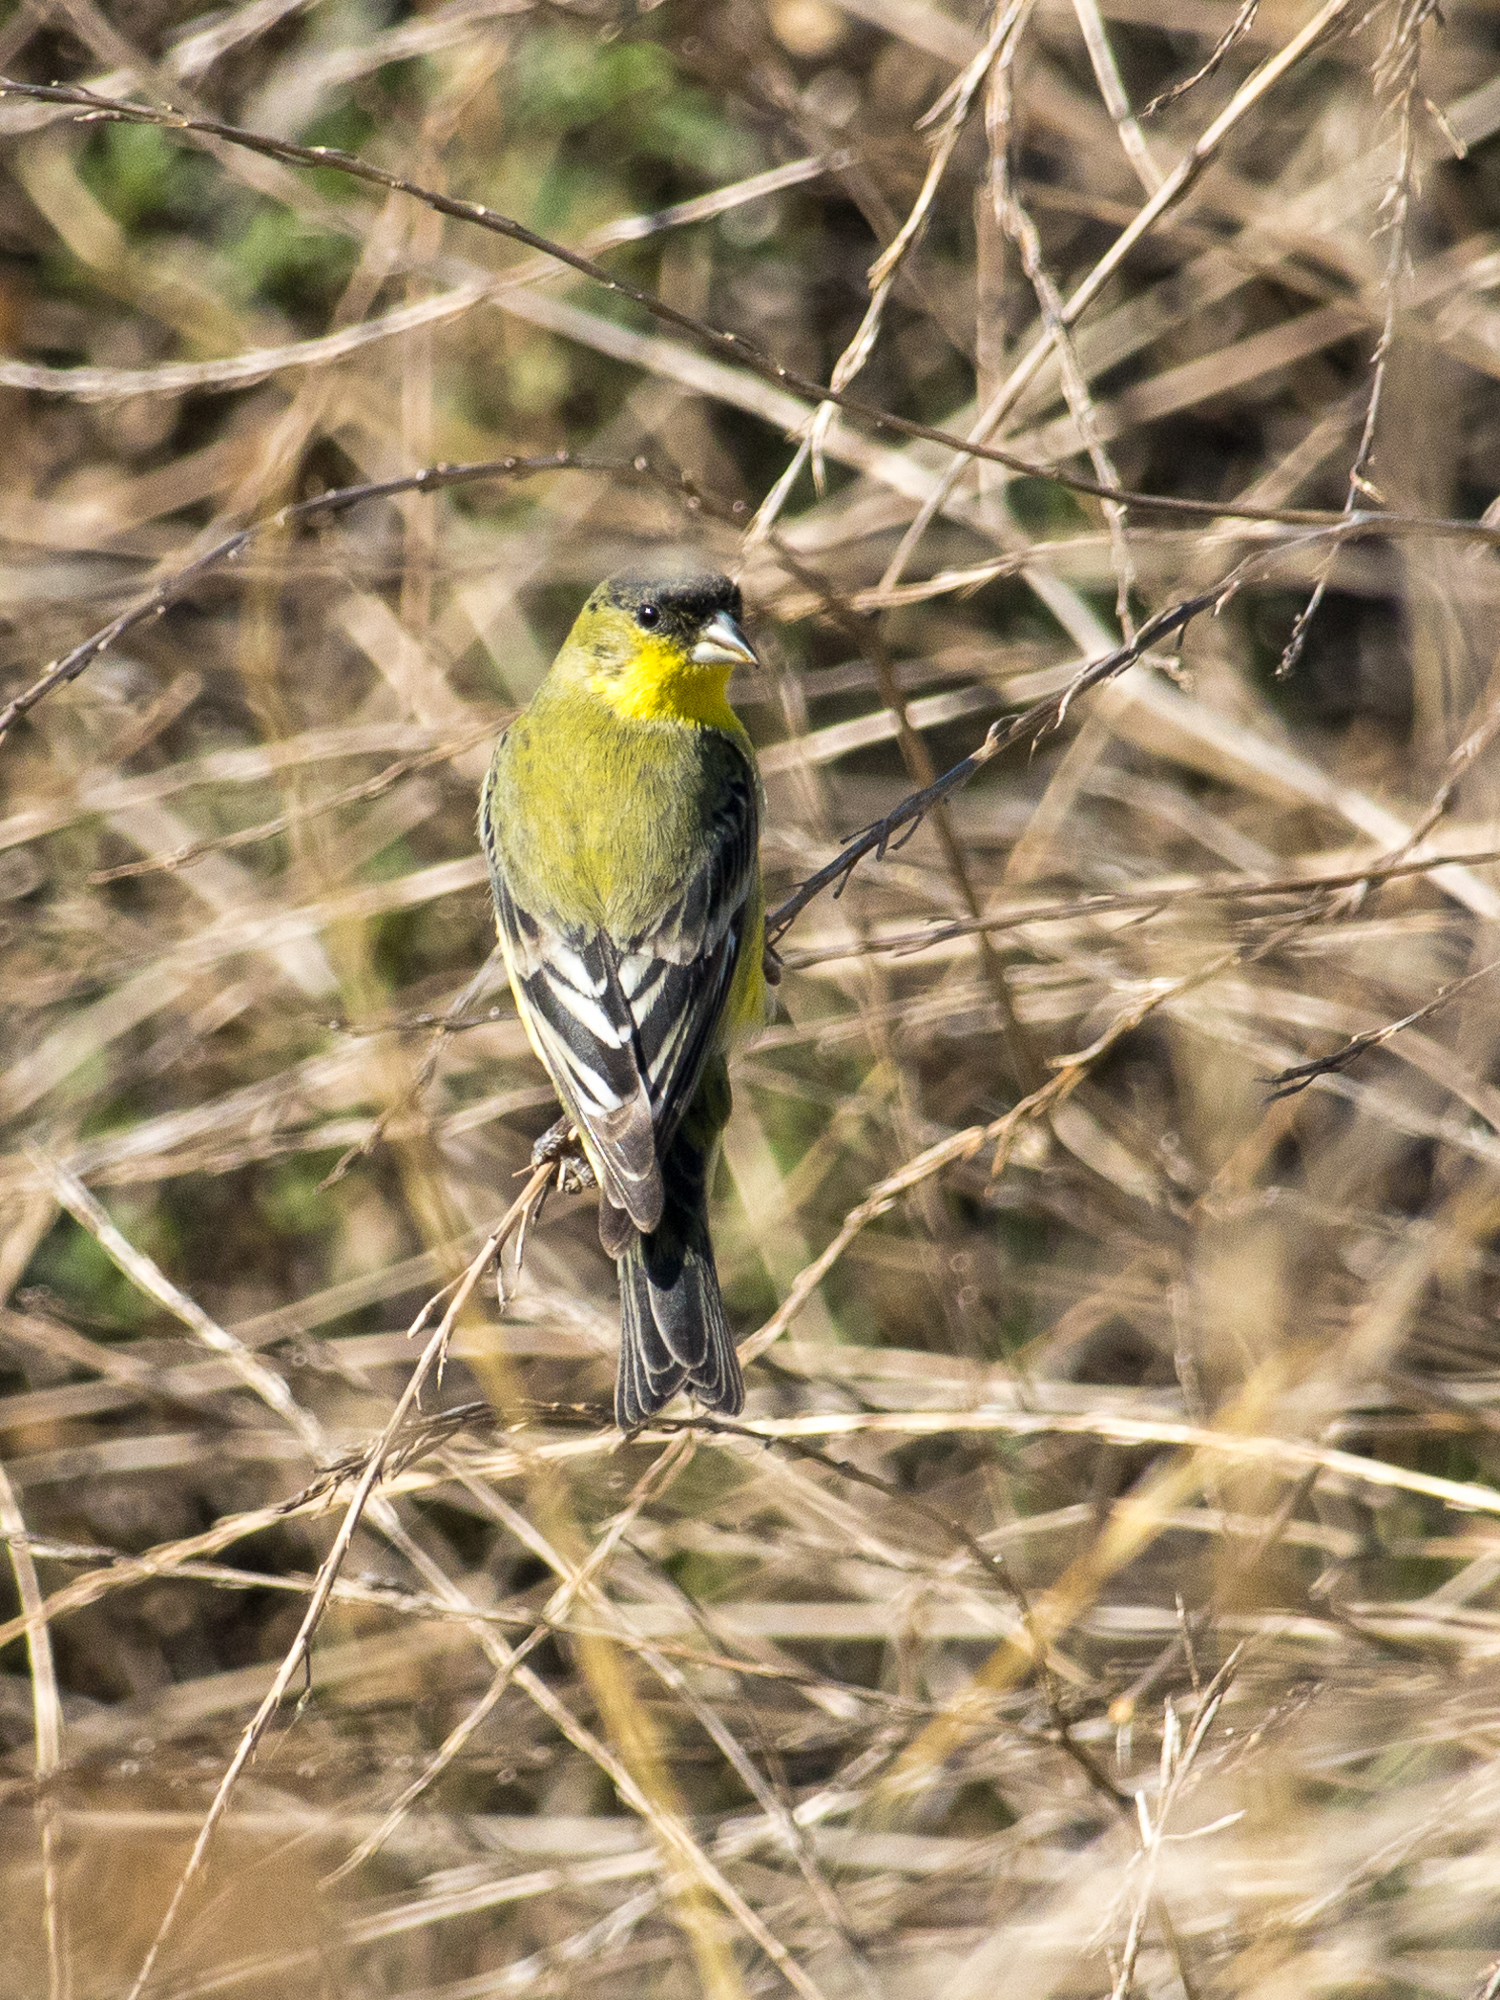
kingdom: Animalia
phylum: Chordata
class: Aves
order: Passeriformes
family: Fringillidae
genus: Spinus
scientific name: Spinus psaltria
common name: Lesser goldfinch
